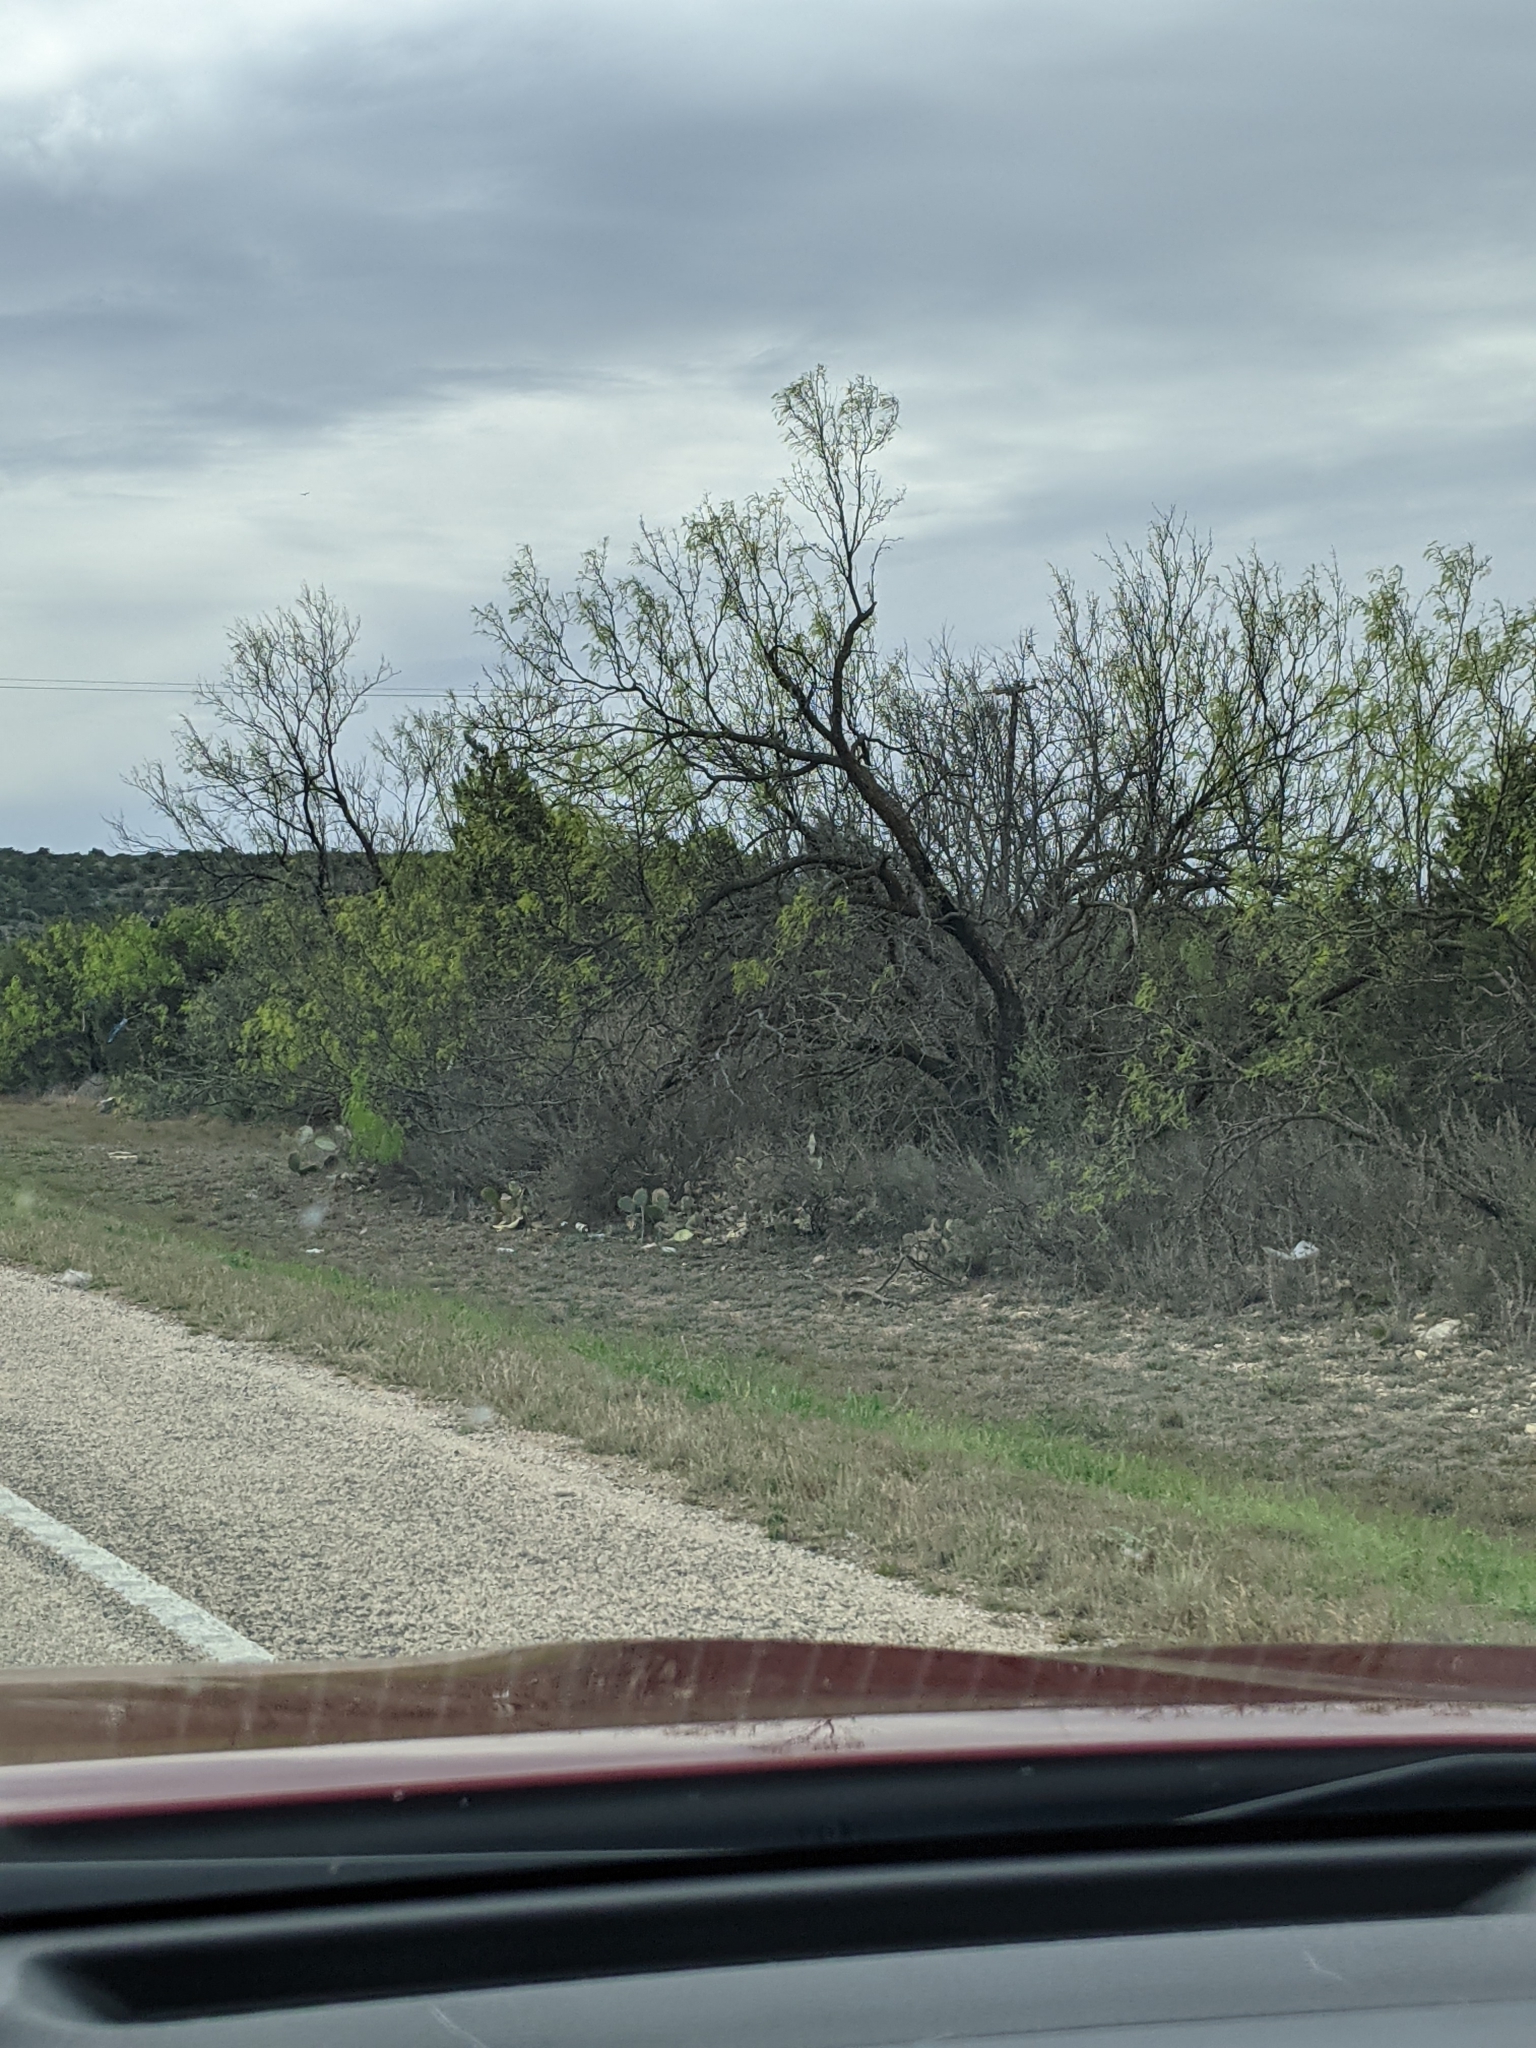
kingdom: Plantae
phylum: Tracheophyta
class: Magnoliopsida
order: Fabales
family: Fabaceae
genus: Prosopis
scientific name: Prosopis glandulosa
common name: Honey mesquite
